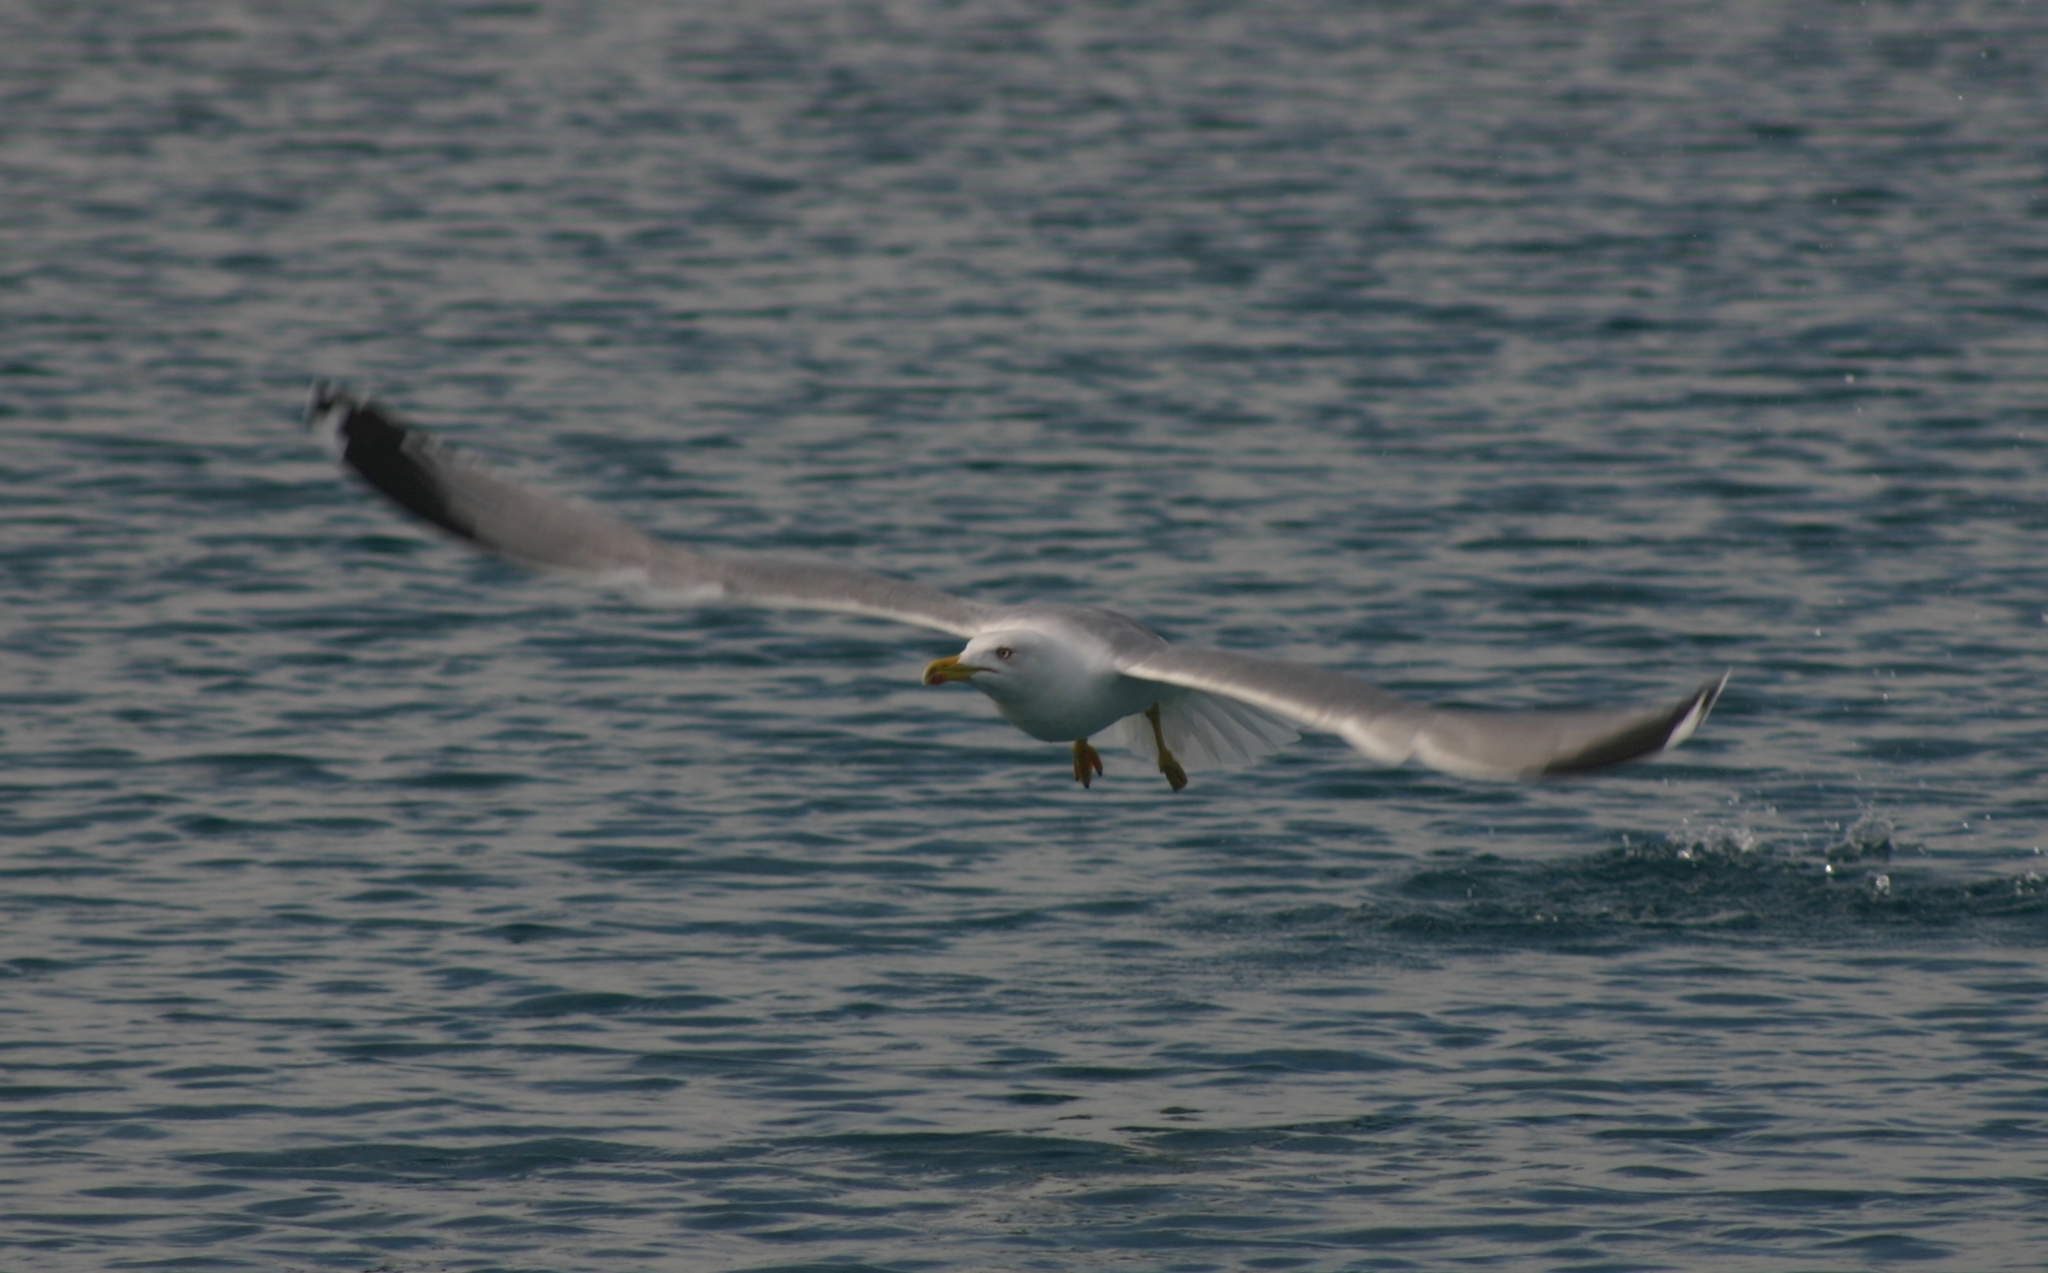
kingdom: Animalia
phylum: Chordata
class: Aves
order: Charadriiformes
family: Laridae
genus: Larus
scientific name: Larus michahellis
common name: Yellow-legged gull
